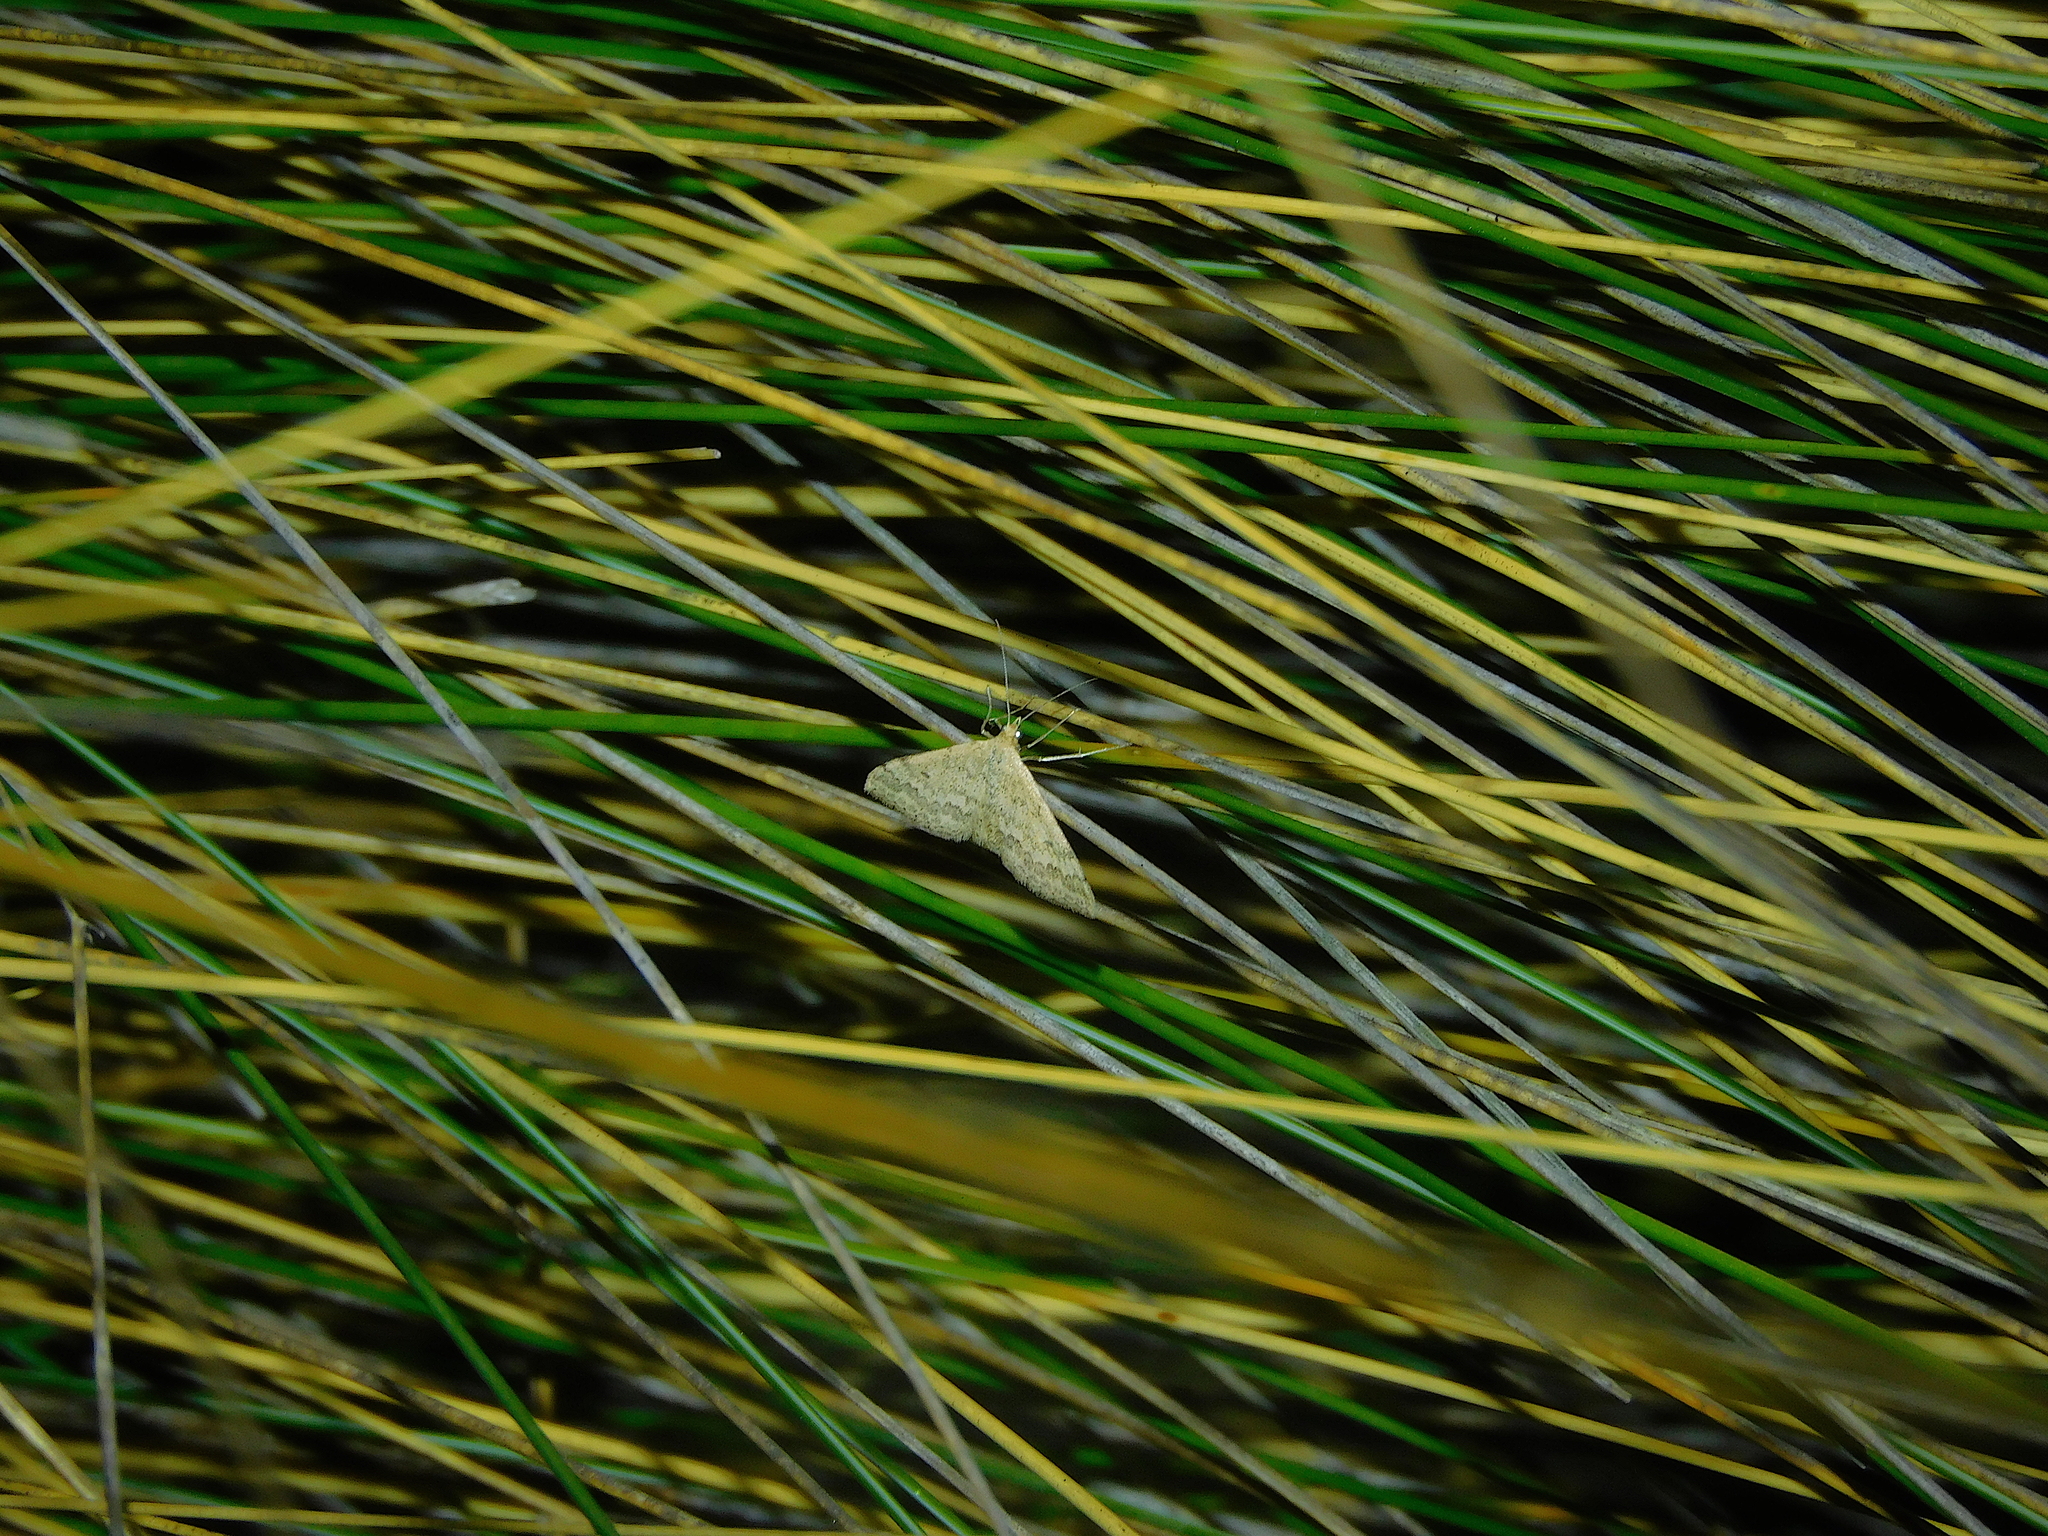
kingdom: Animalia
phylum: Arthropoda
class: Insecta
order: Lepidoptera
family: Geometridae
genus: Scopula
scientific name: Scopula rubraria
